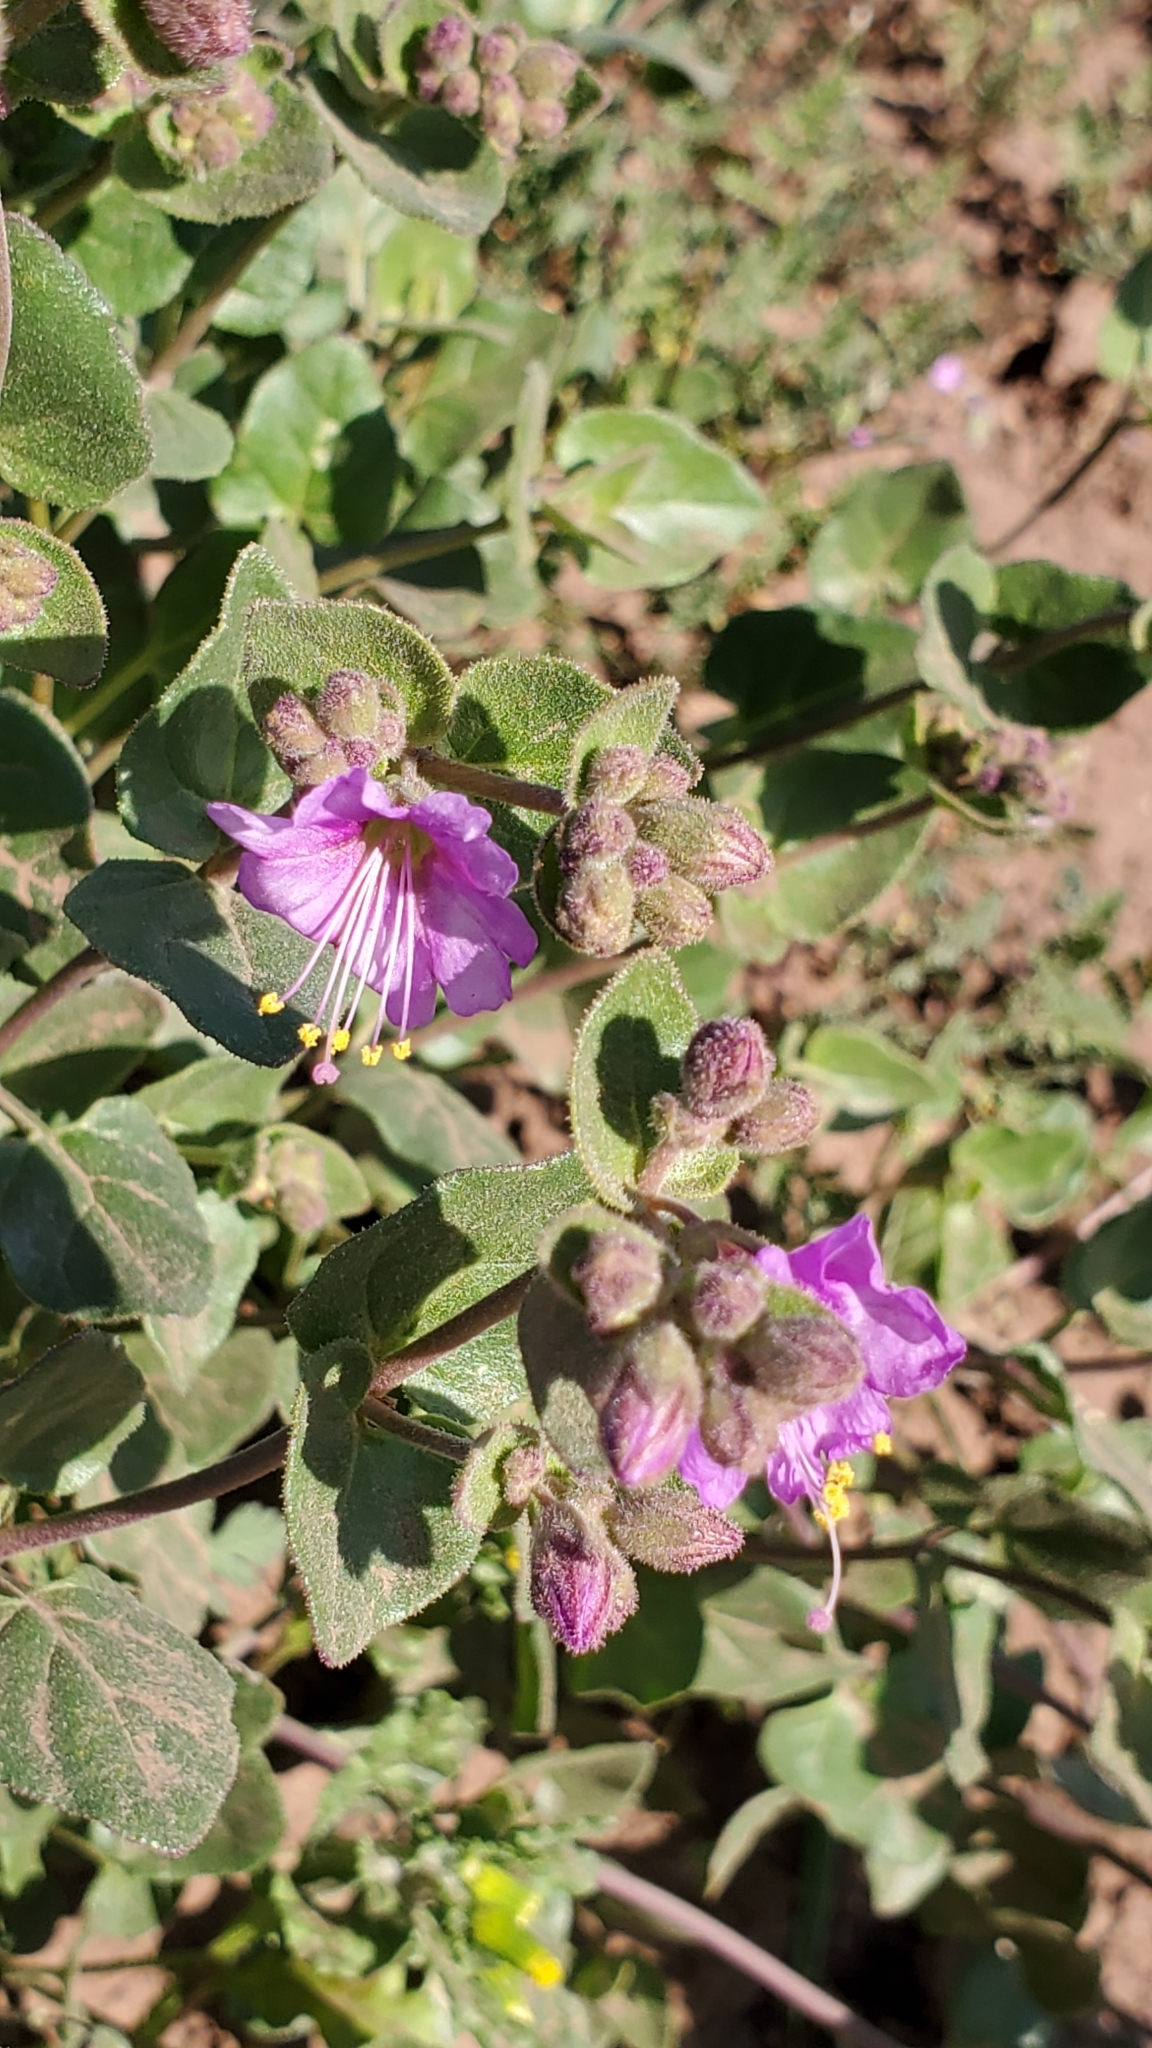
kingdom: Plantae
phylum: Tracheophyta
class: Magnoliopsida
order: Caryophyllales
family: Nyctaginaceae
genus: Mirabilis
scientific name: Mirabilis laevis
